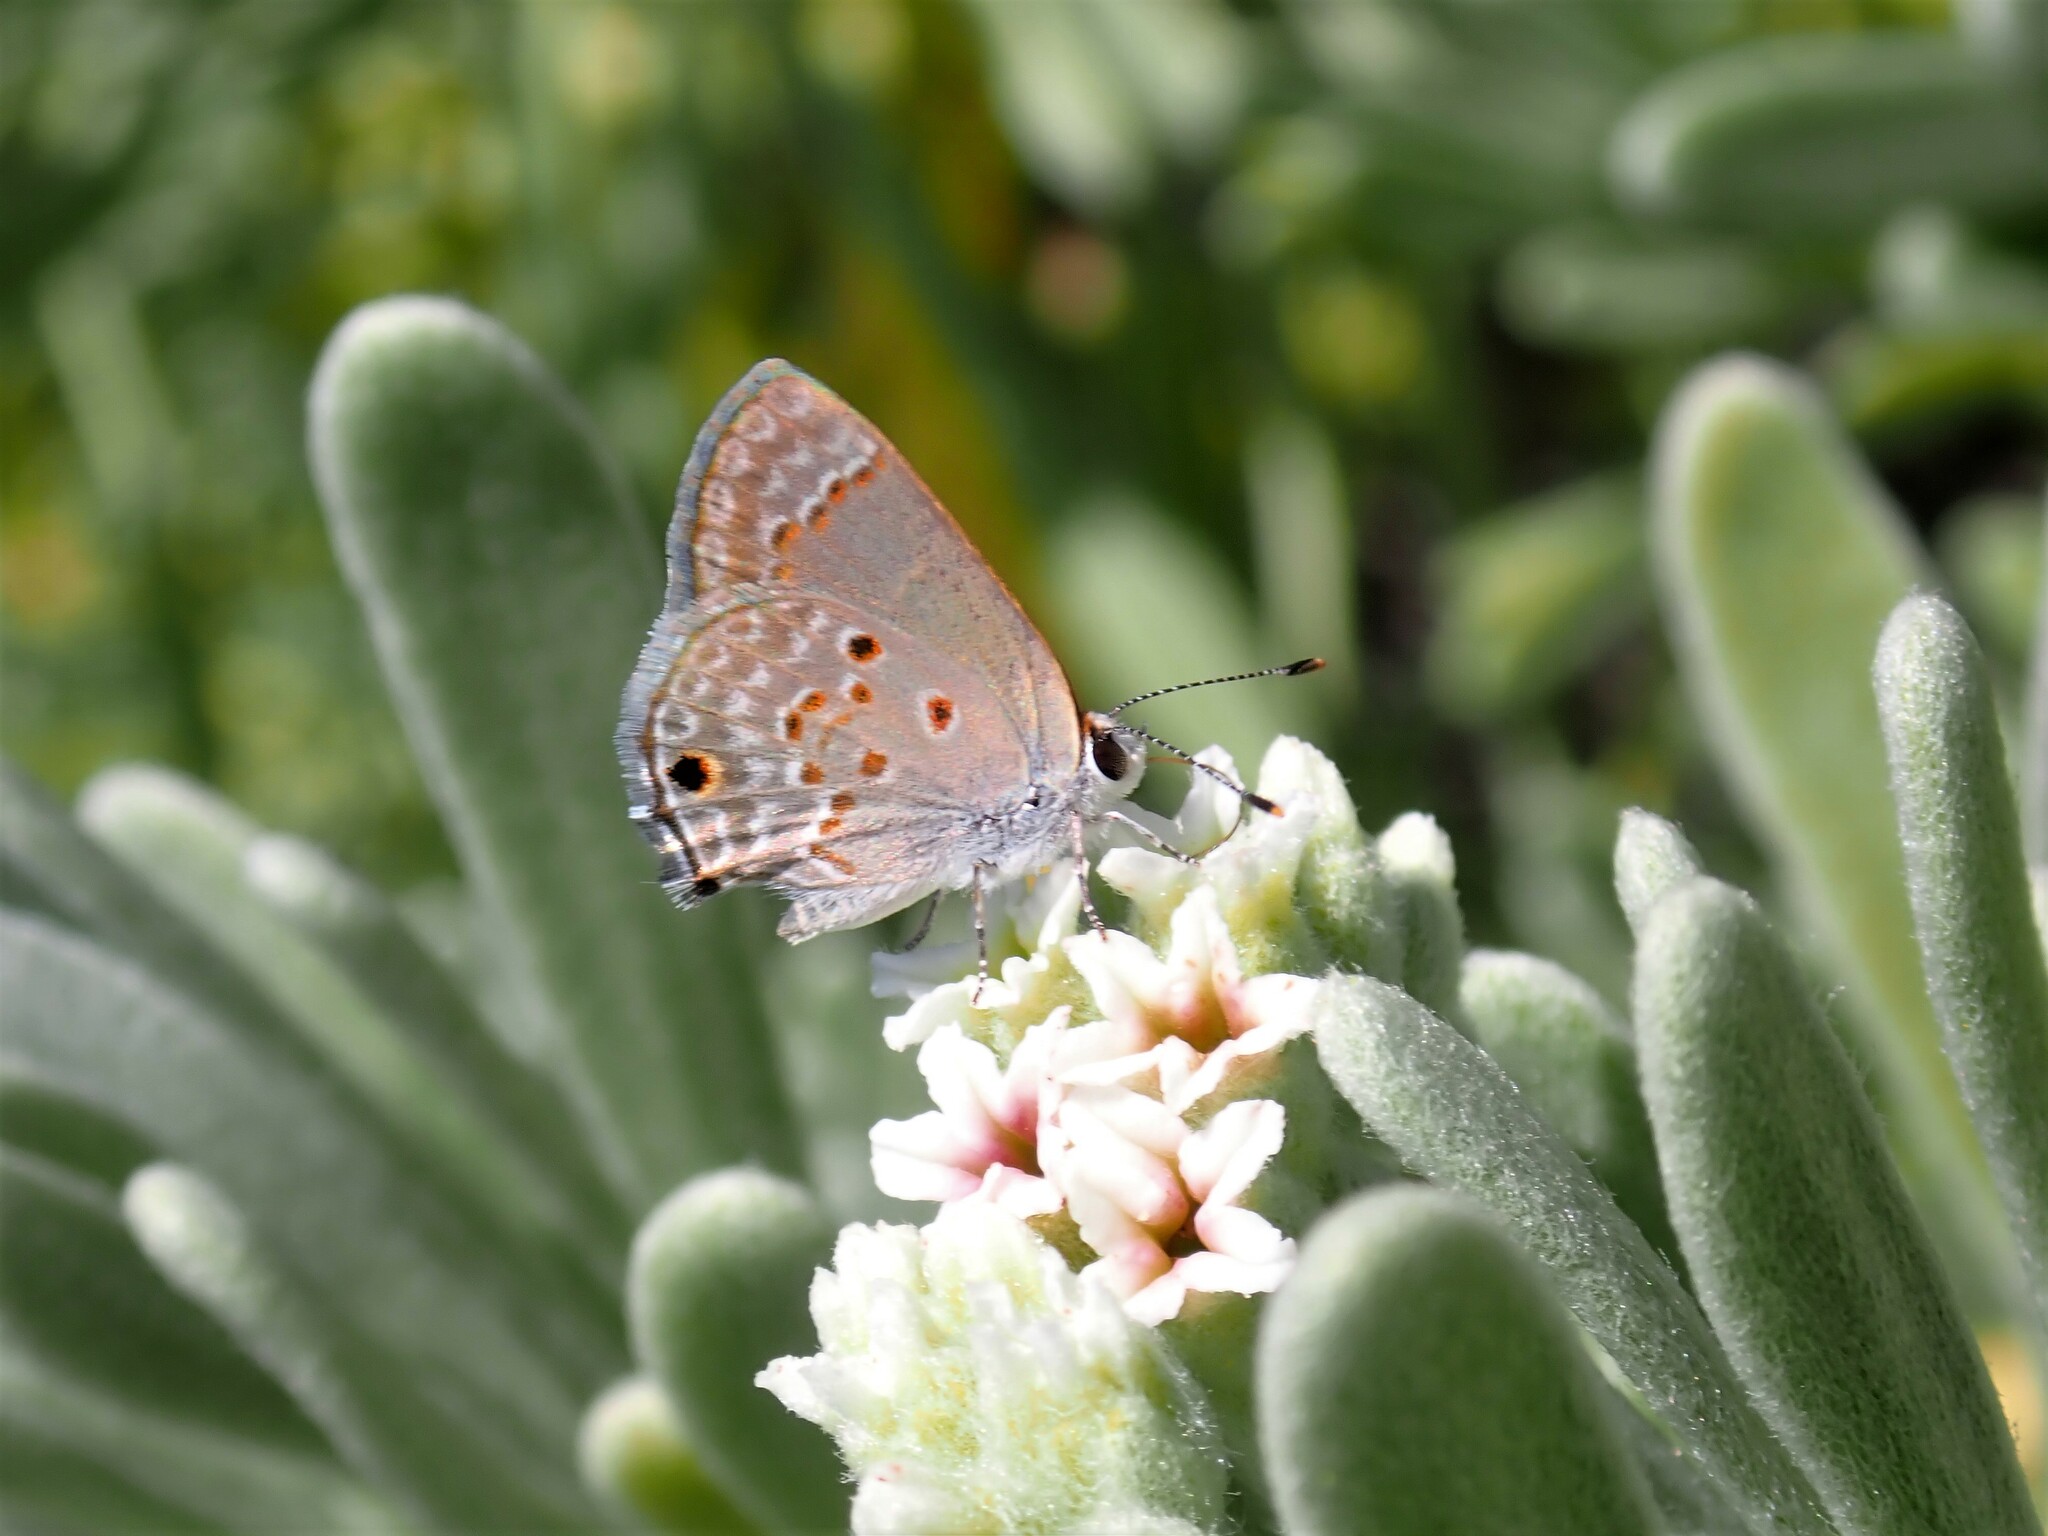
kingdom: Animalia
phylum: Arthropoda
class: Insecta
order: Lepidoptera
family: Lycaenidae
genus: Strymon
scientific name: Strymon bubastus
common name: Bubastes hairstreak
